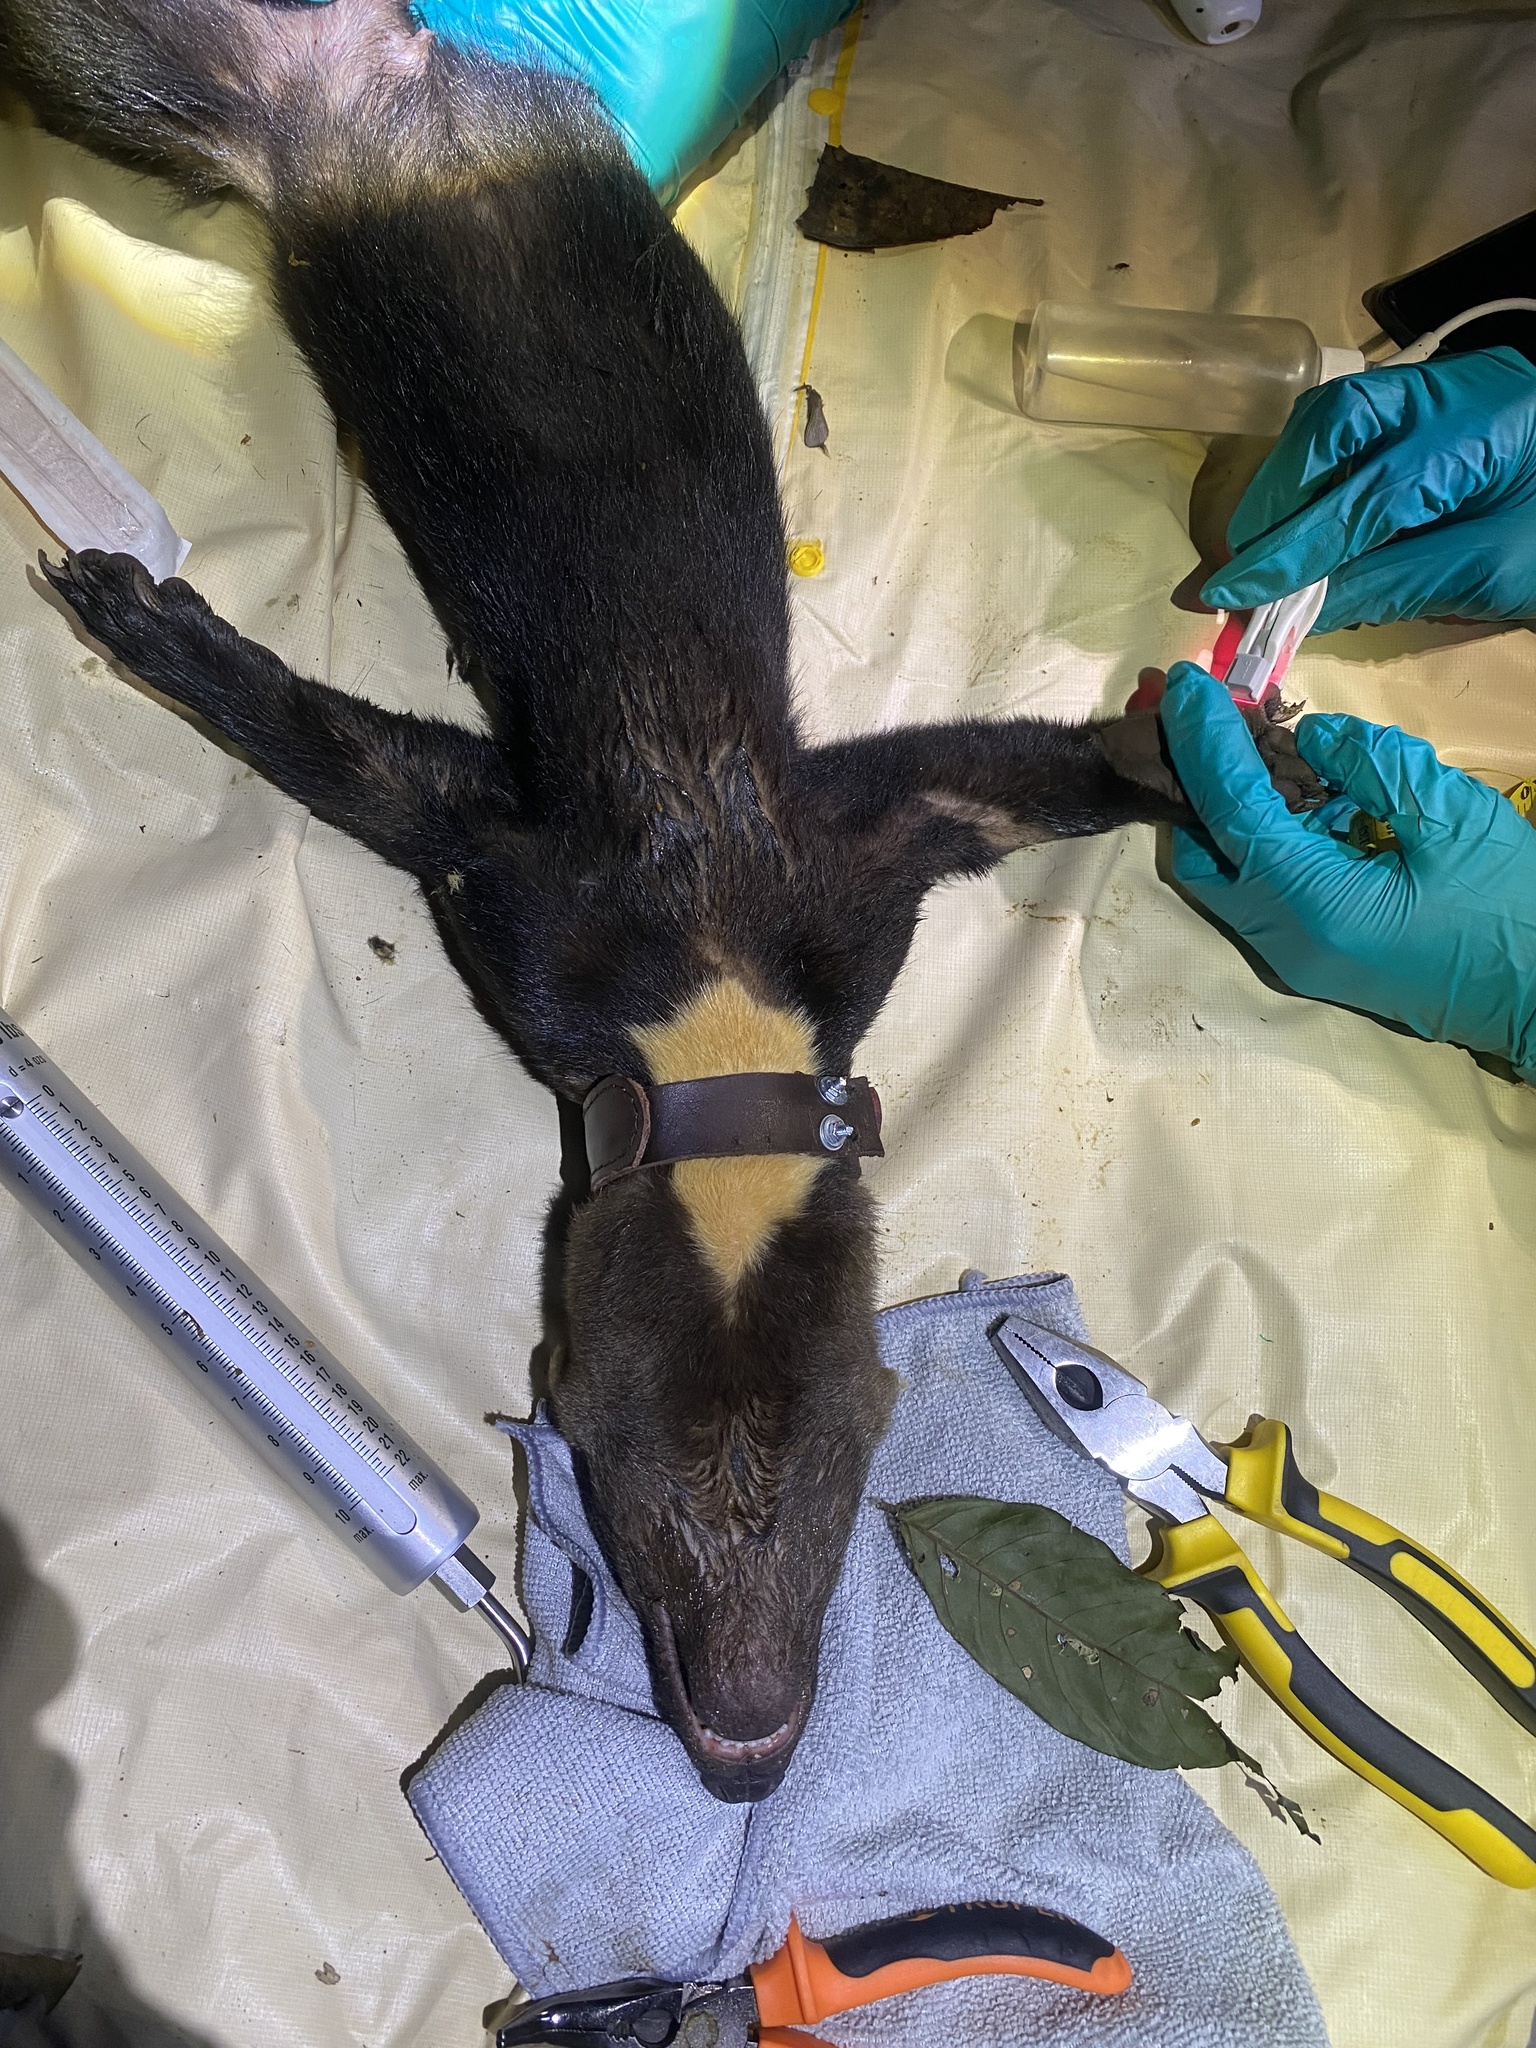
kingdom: Animalia
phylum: Chordata
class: Mammalia
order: Carnivora
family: Mustelidae
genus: Eira
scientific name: Eira barbara
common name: Tayra
